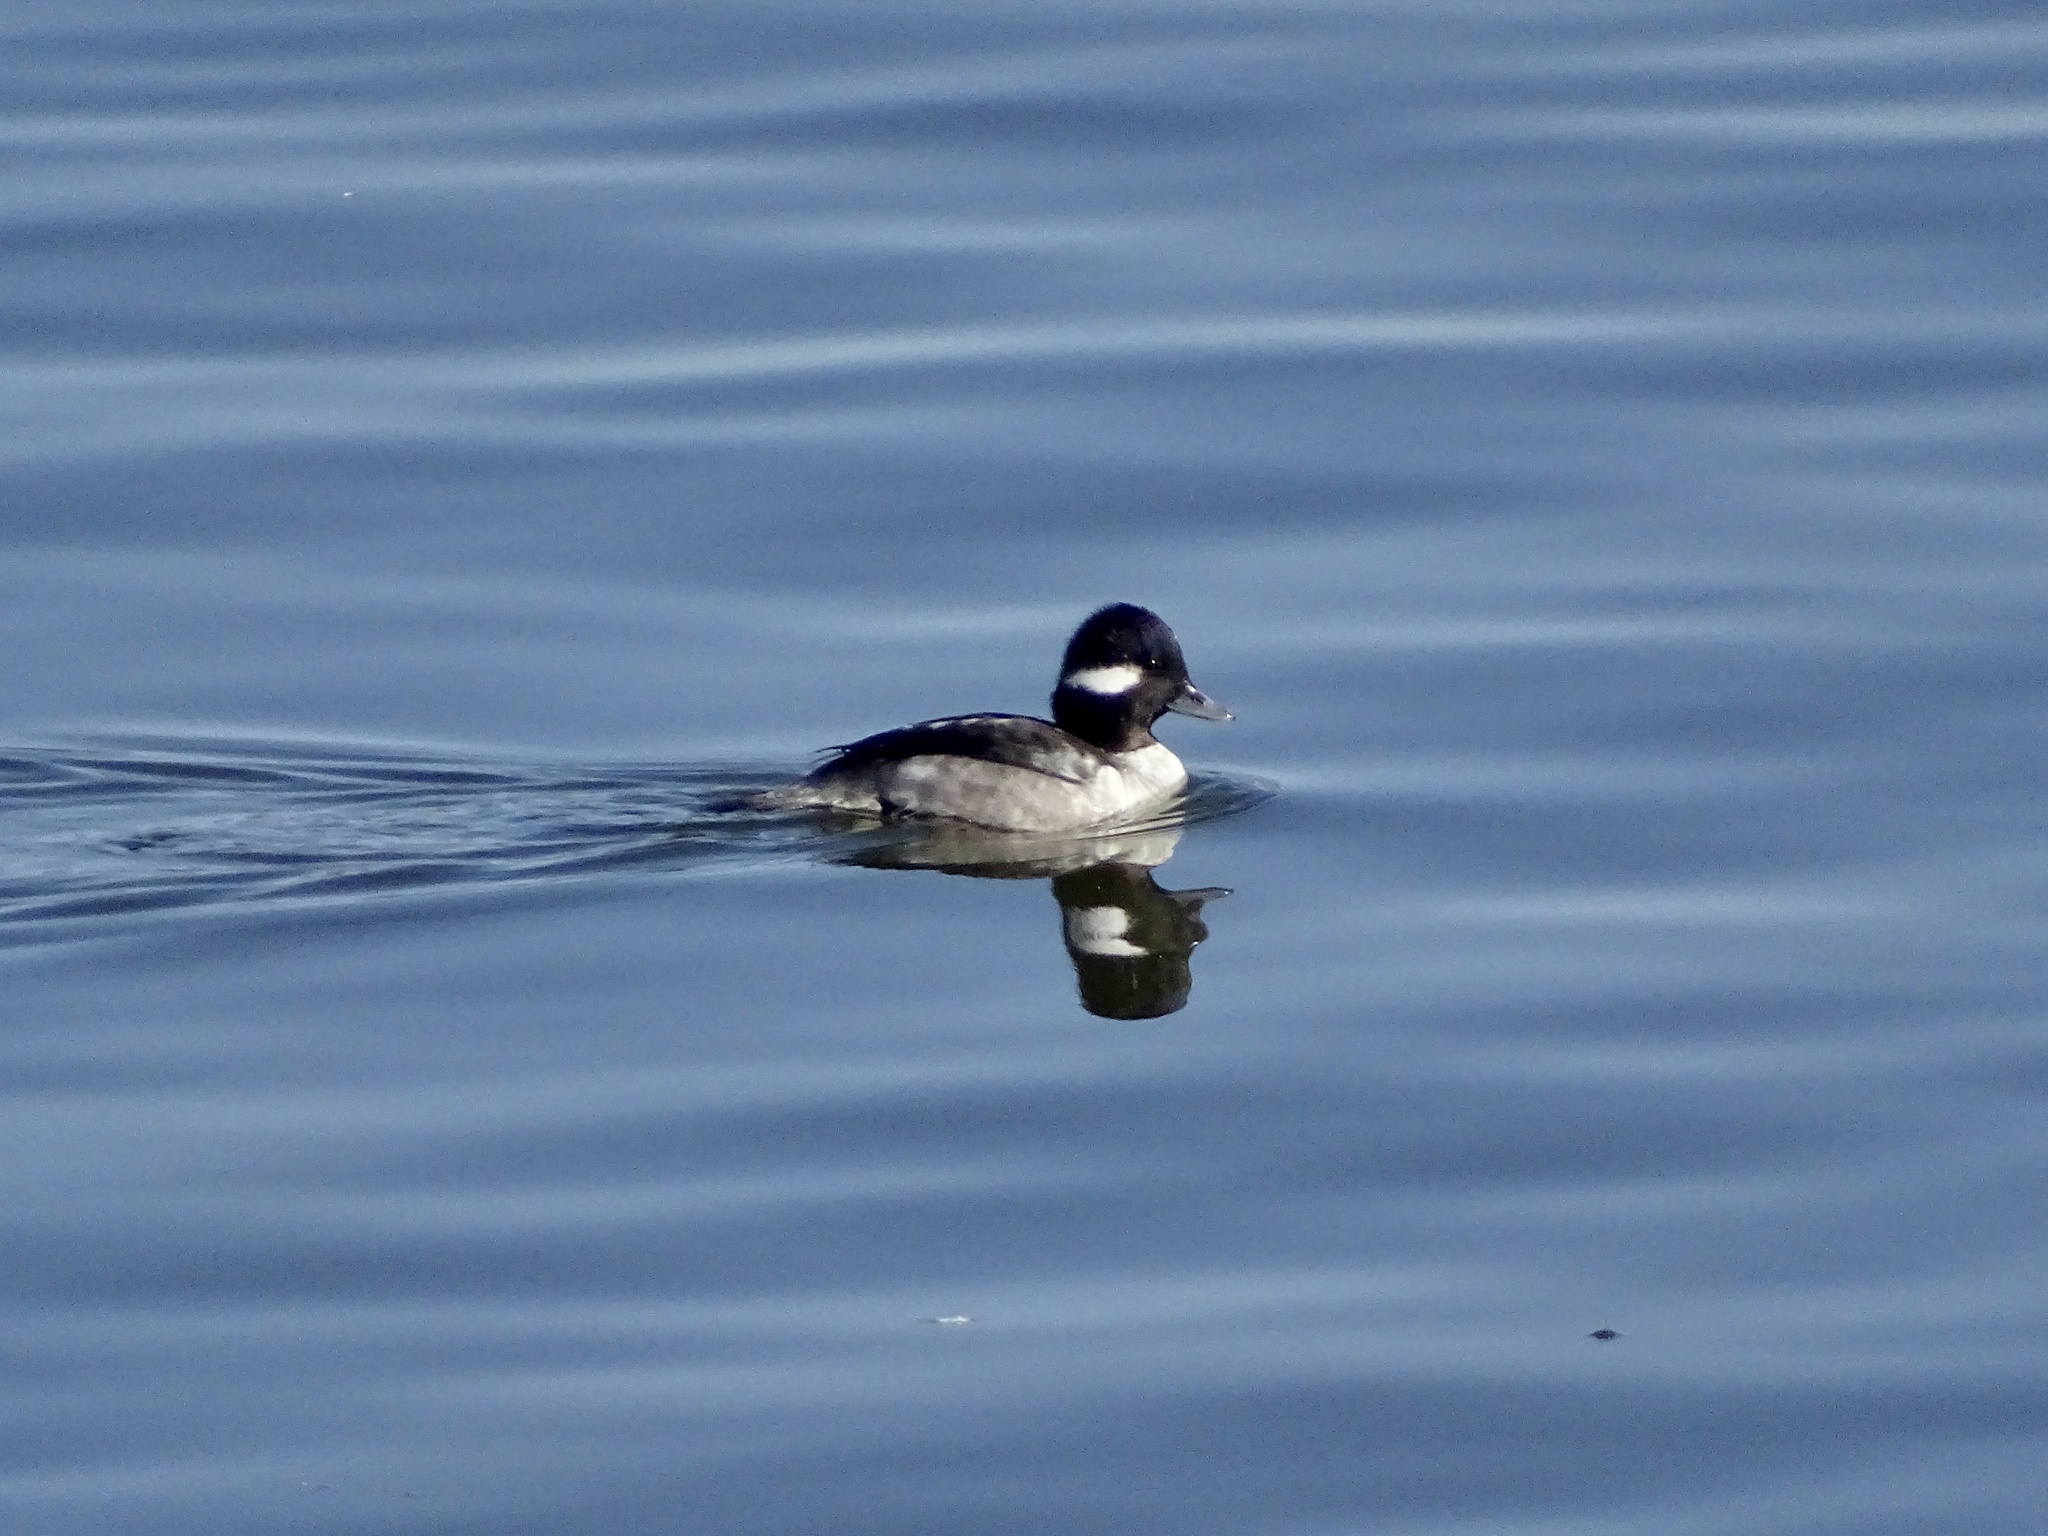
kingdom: Animalia
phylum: Chordata
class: Aves
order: Anseriformes
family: Anatidae
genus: Bucephala
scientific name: Bucephala albeola
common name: Bufflehead
